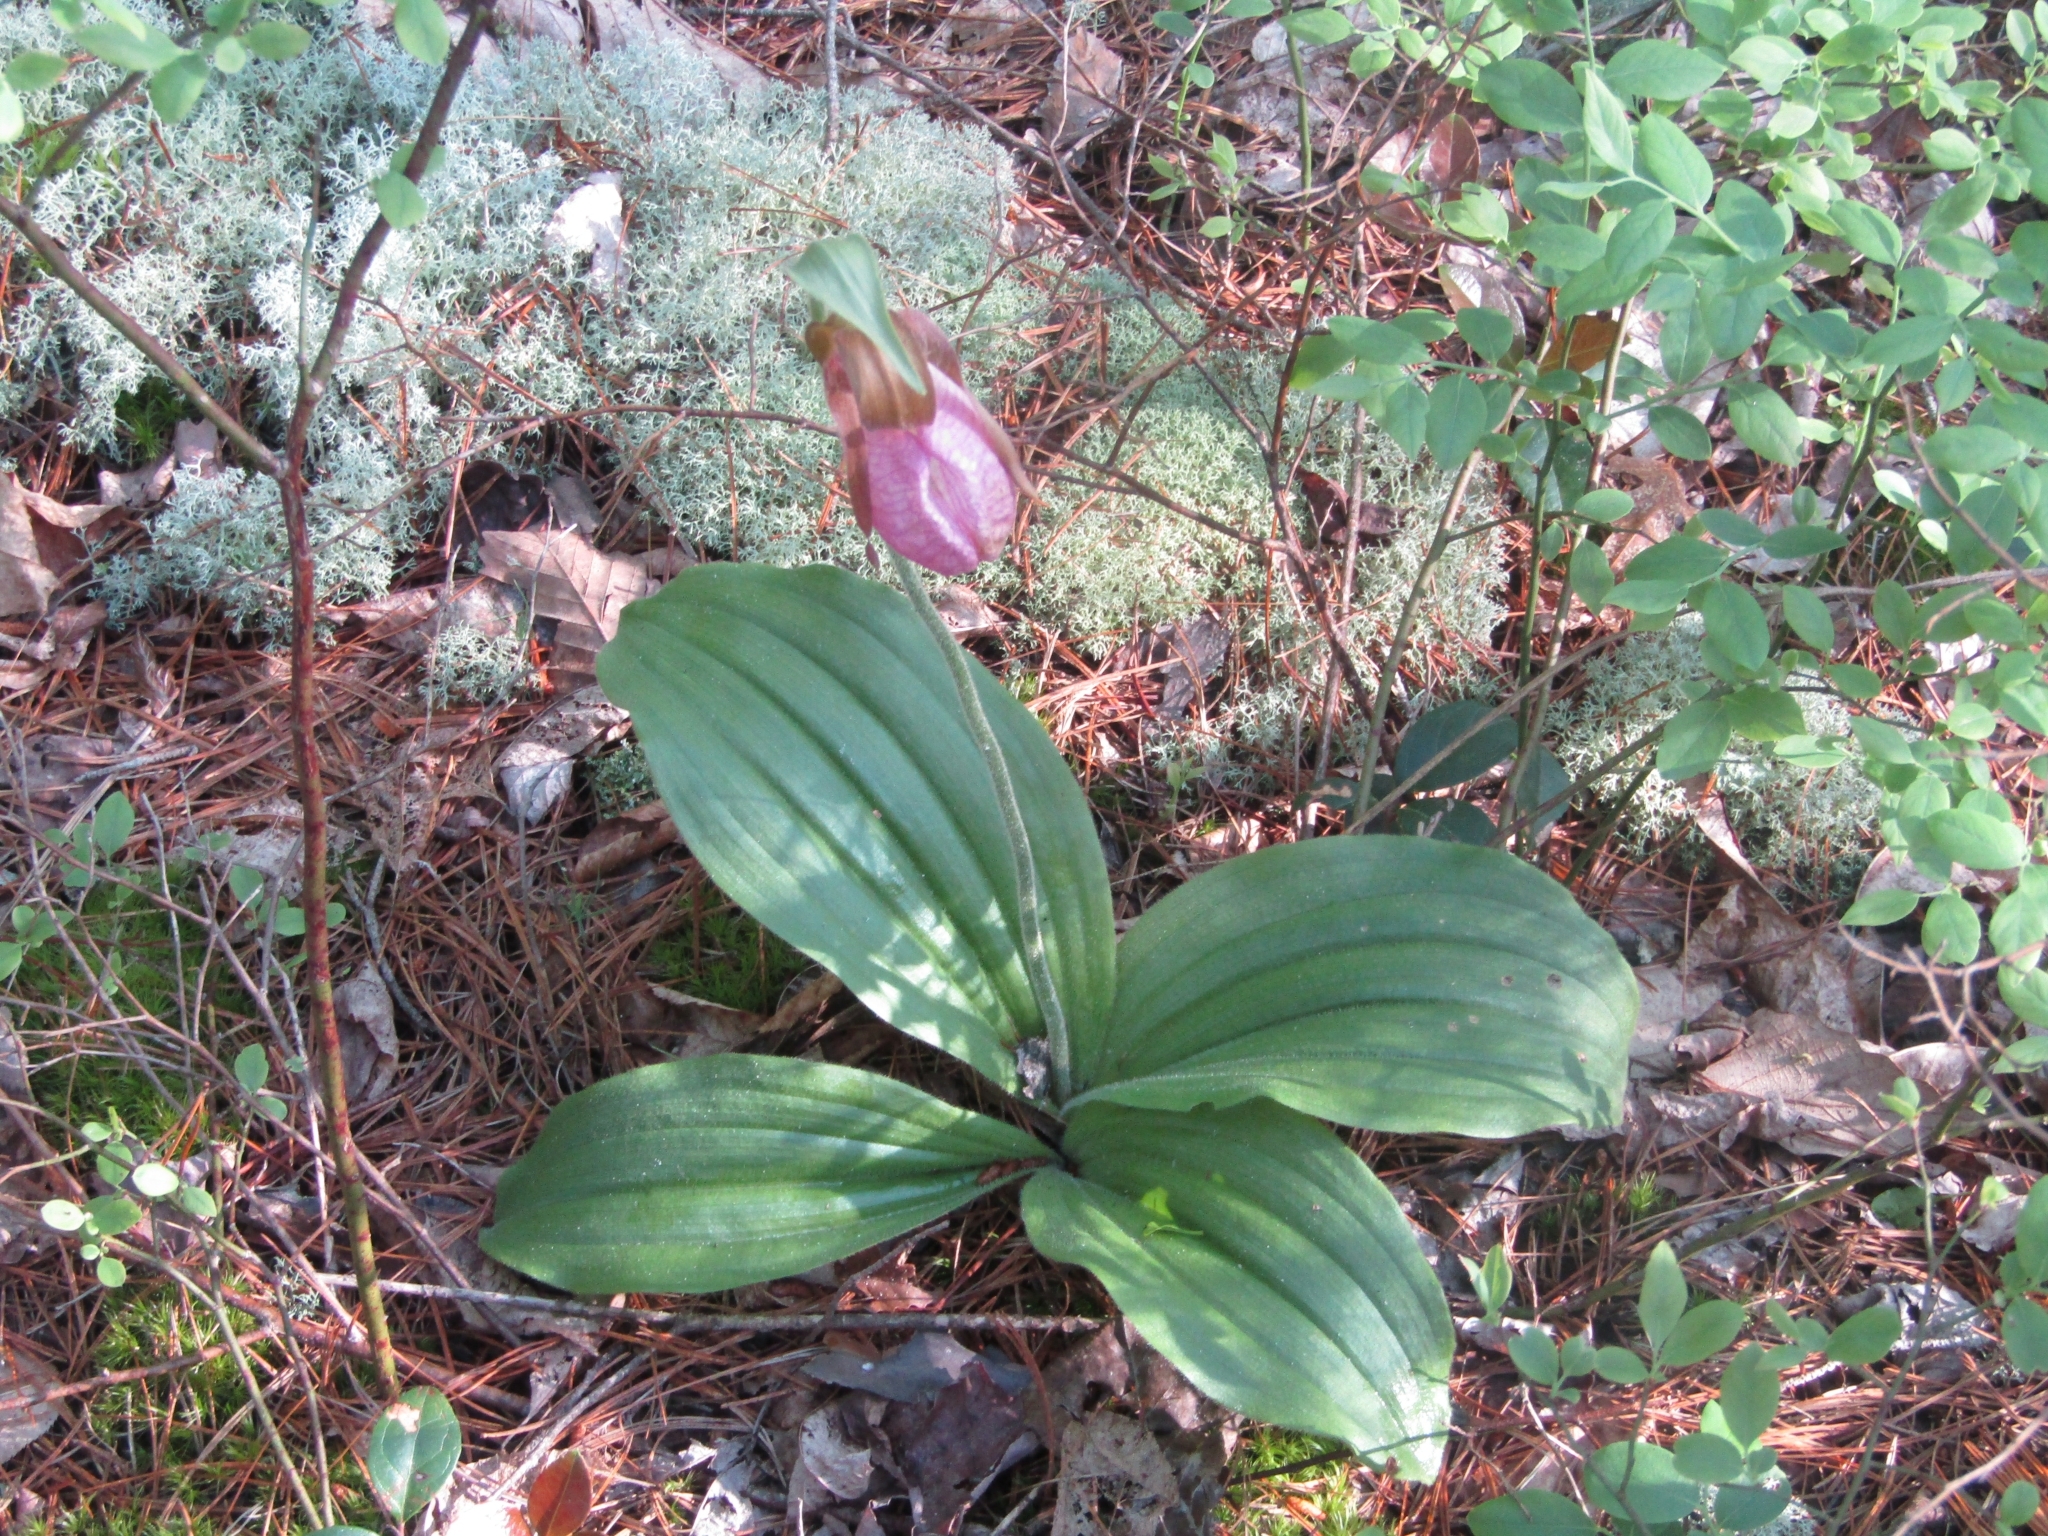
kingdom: Plantae
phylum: Tracheophyta
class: Liliopsida
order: Asparagales
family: Orchidaceae
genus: Cypripedium
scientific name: Cypripedium acaule
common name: Pink lady's-slipper
